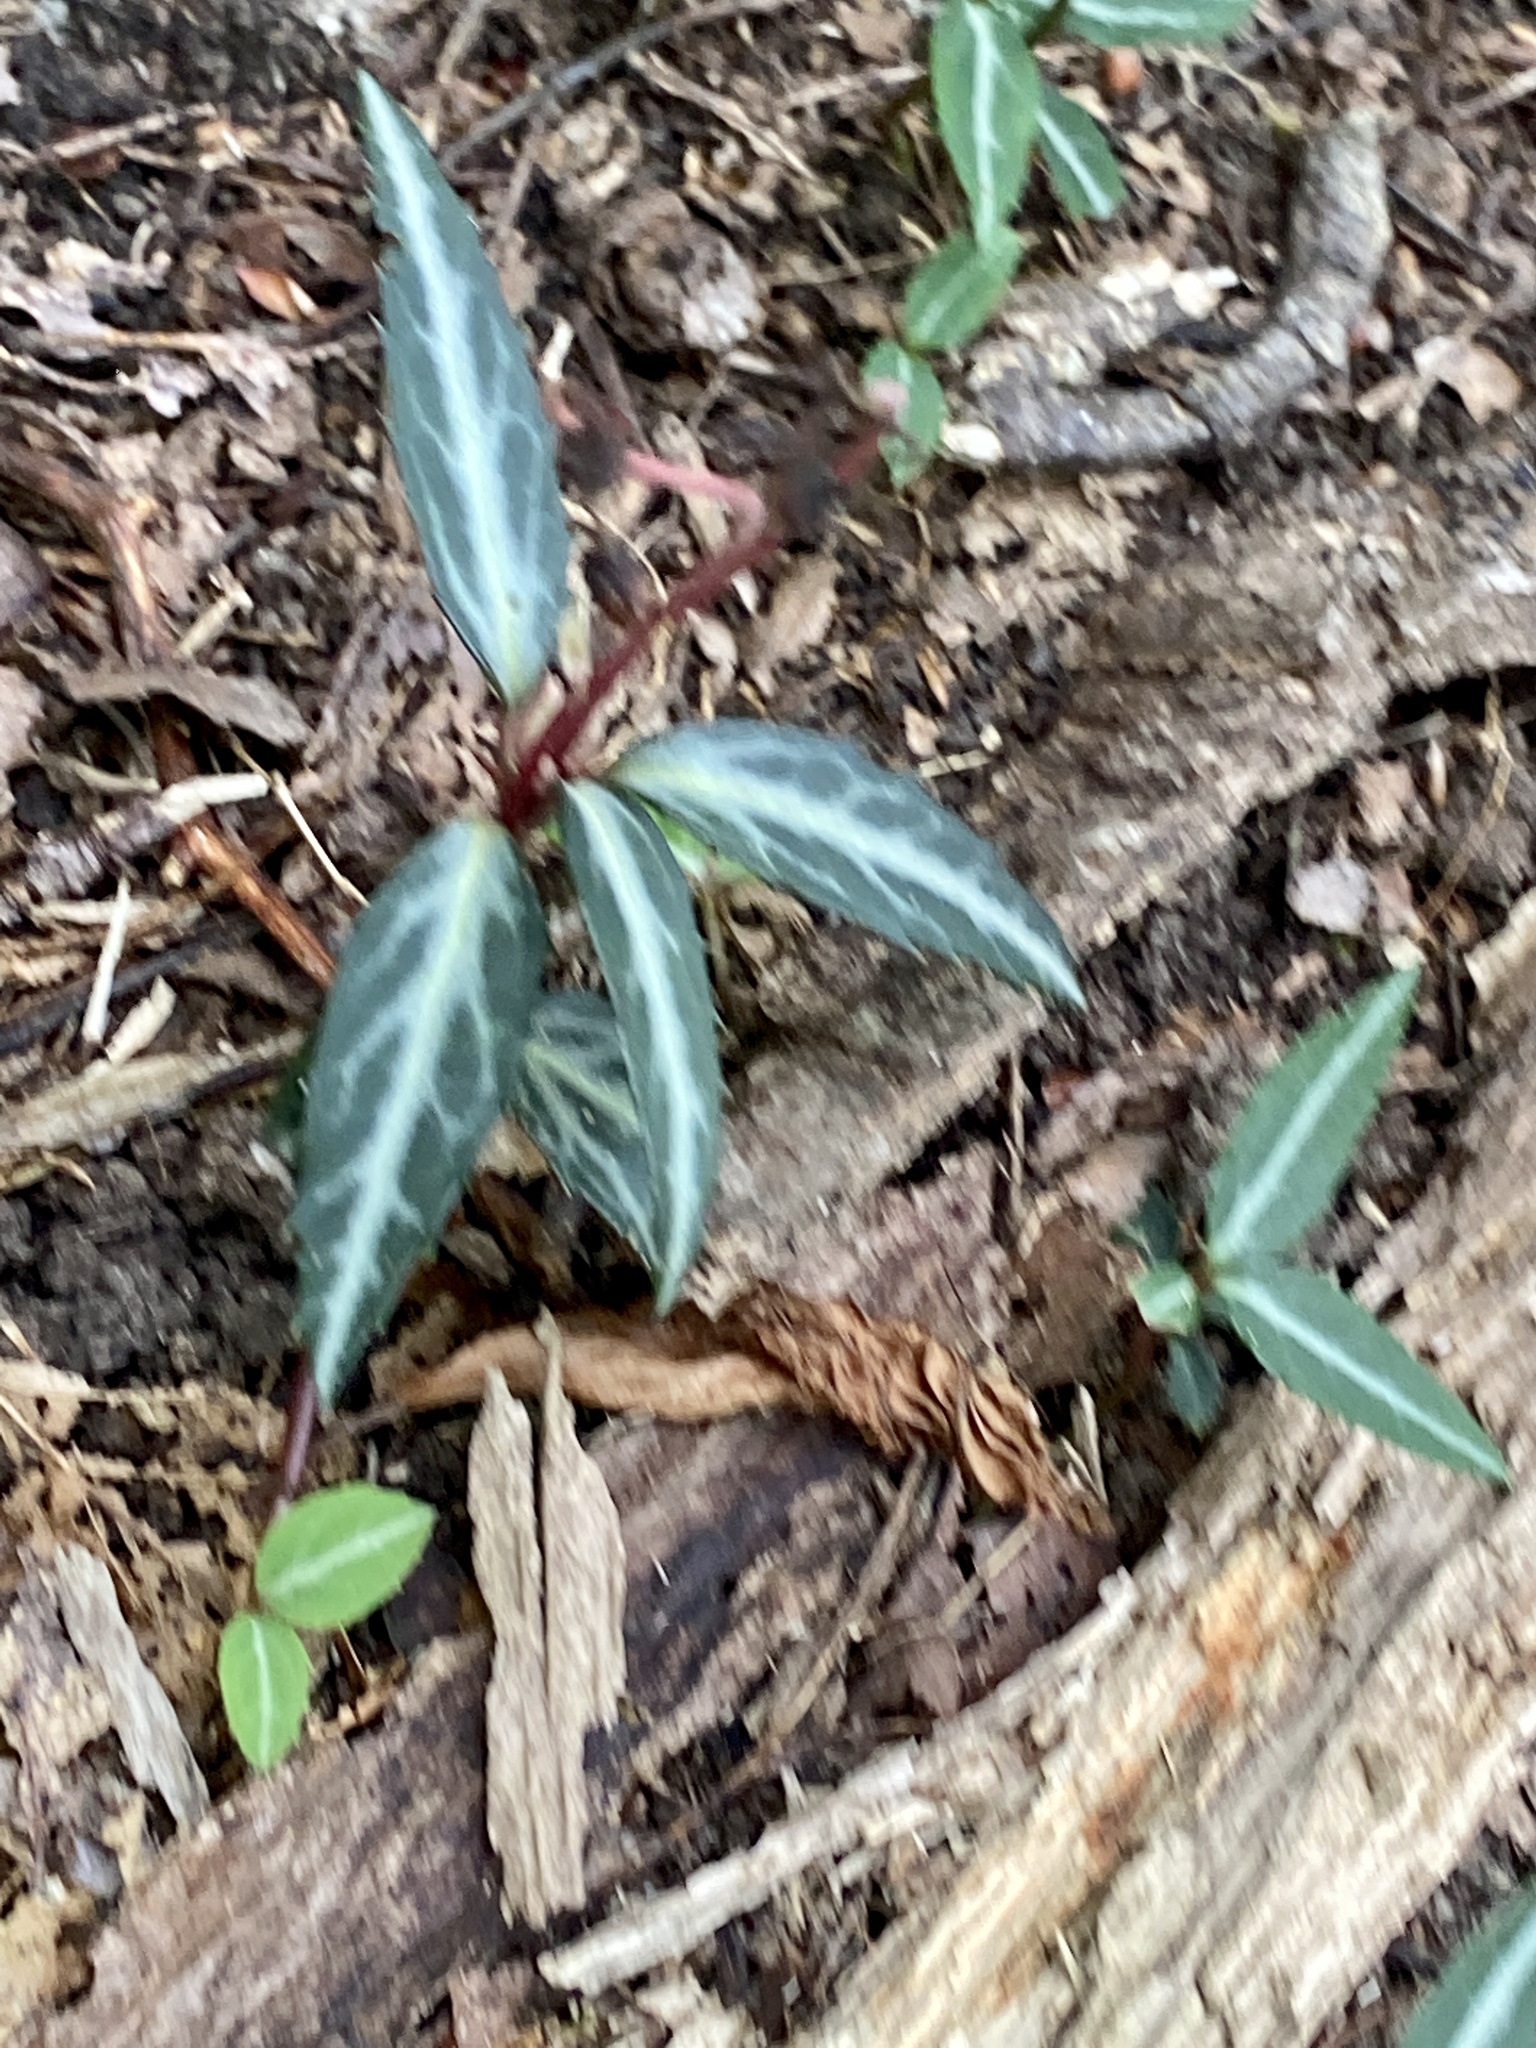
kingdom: Plantae
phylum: Tracheophyta
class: Magnoliopsida
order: Ericales
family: Ericaceae
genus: Chimaphila
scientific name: Chimaphila maculata
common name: Spotted pipsissewa
